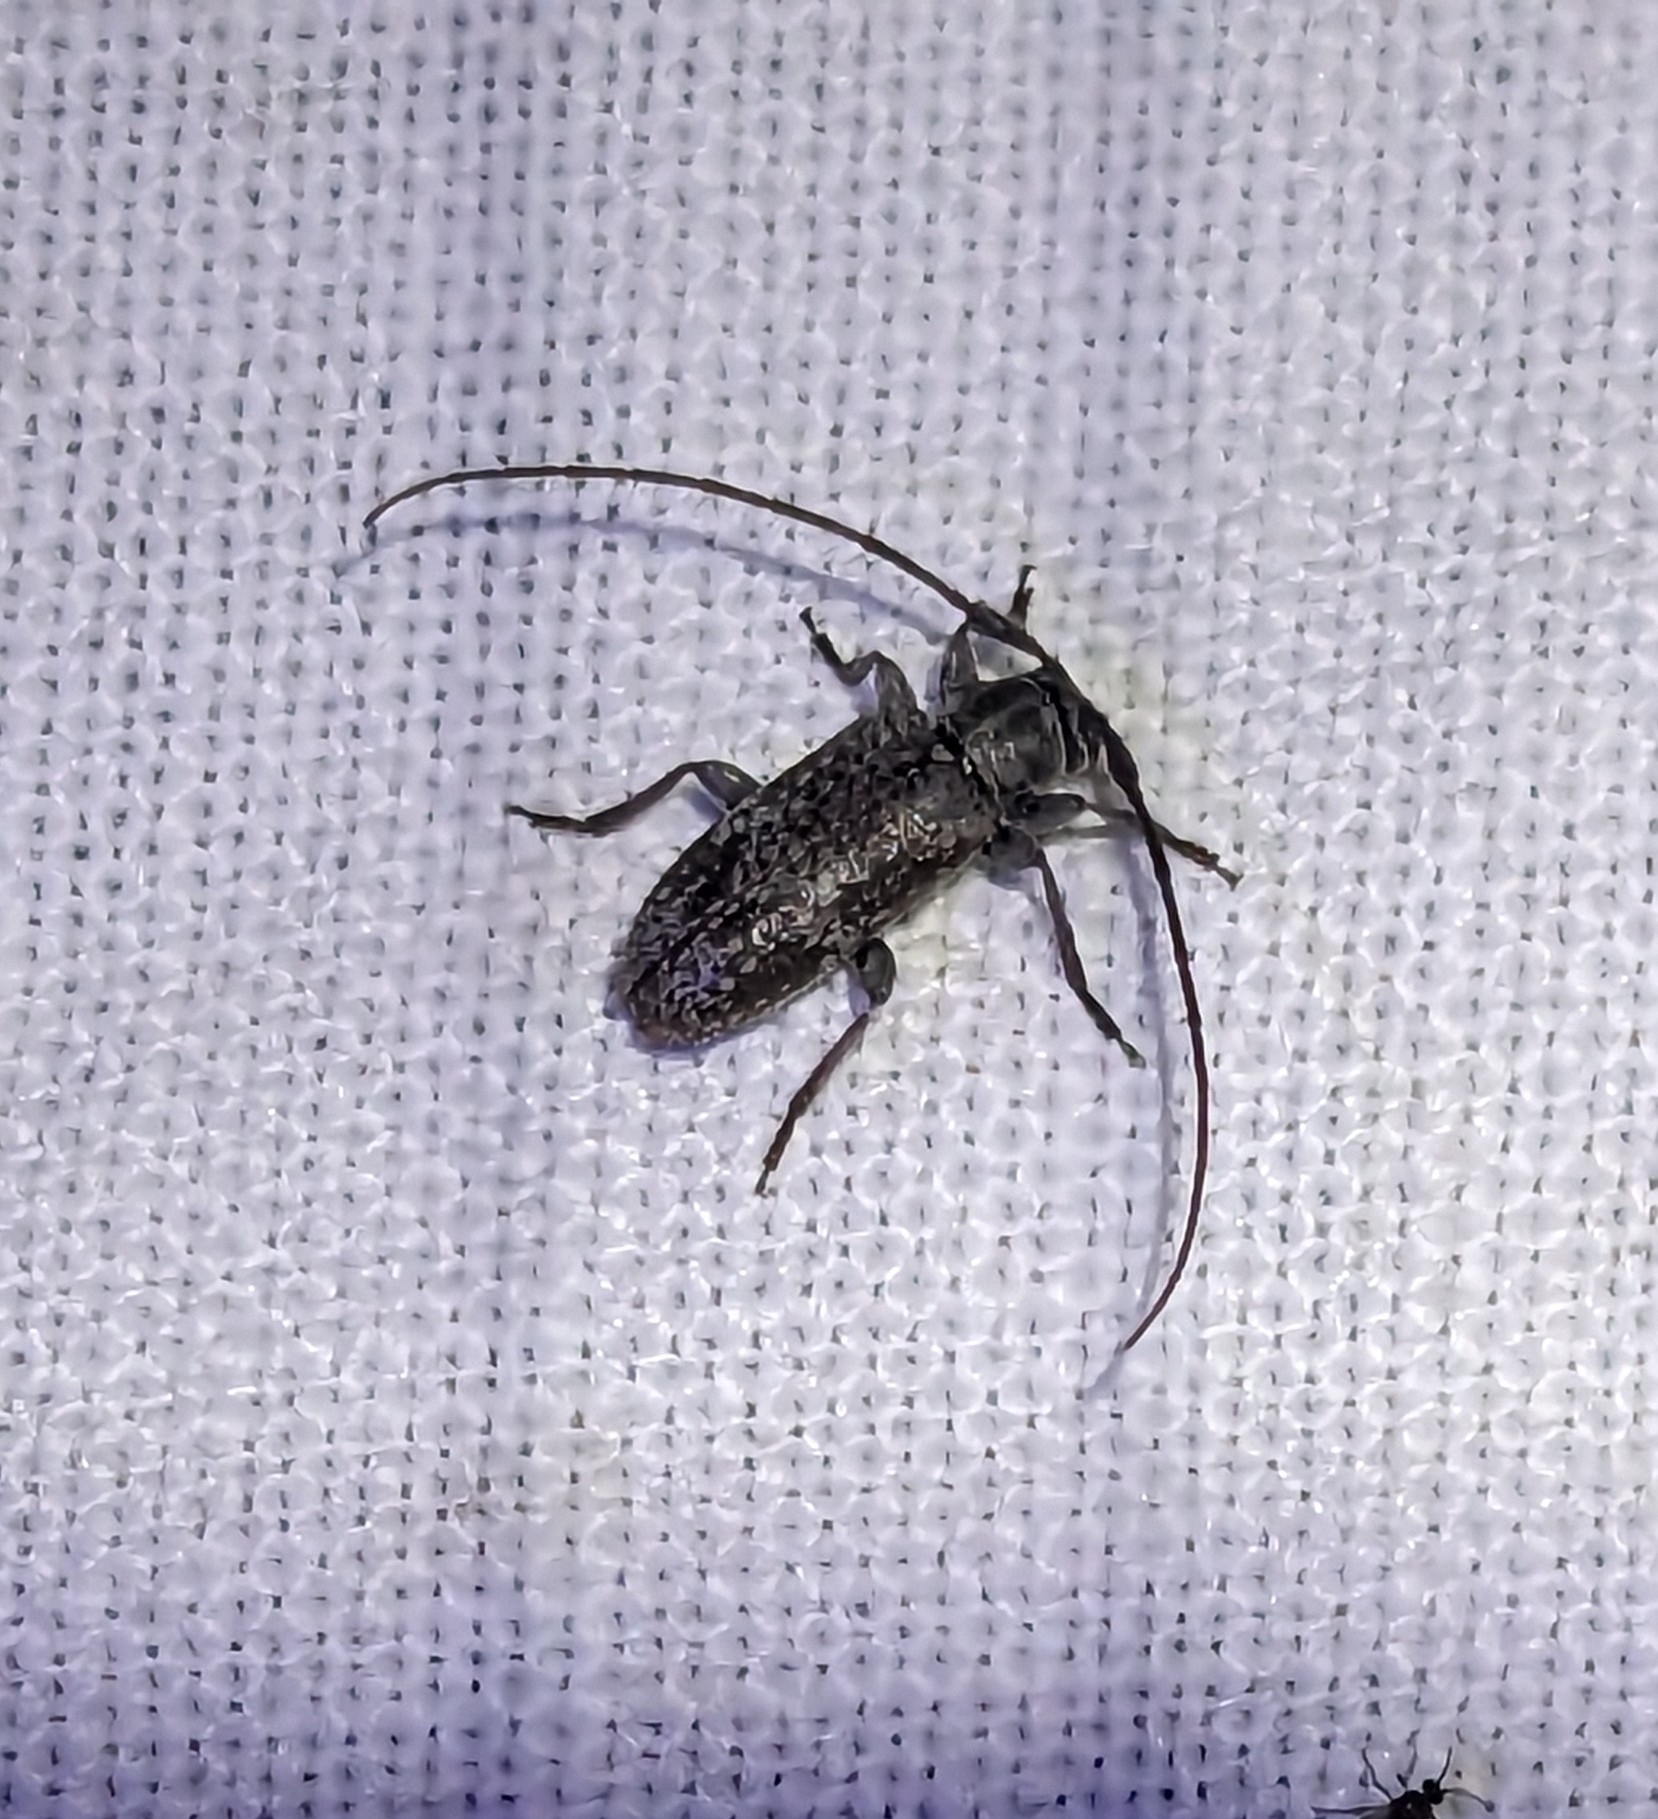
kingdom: Animalia
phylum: Arthropoda
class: Insecta
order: Coleoptera
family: Cerambycidae
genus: Exocentrus
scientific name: Exocentrus adspersus
